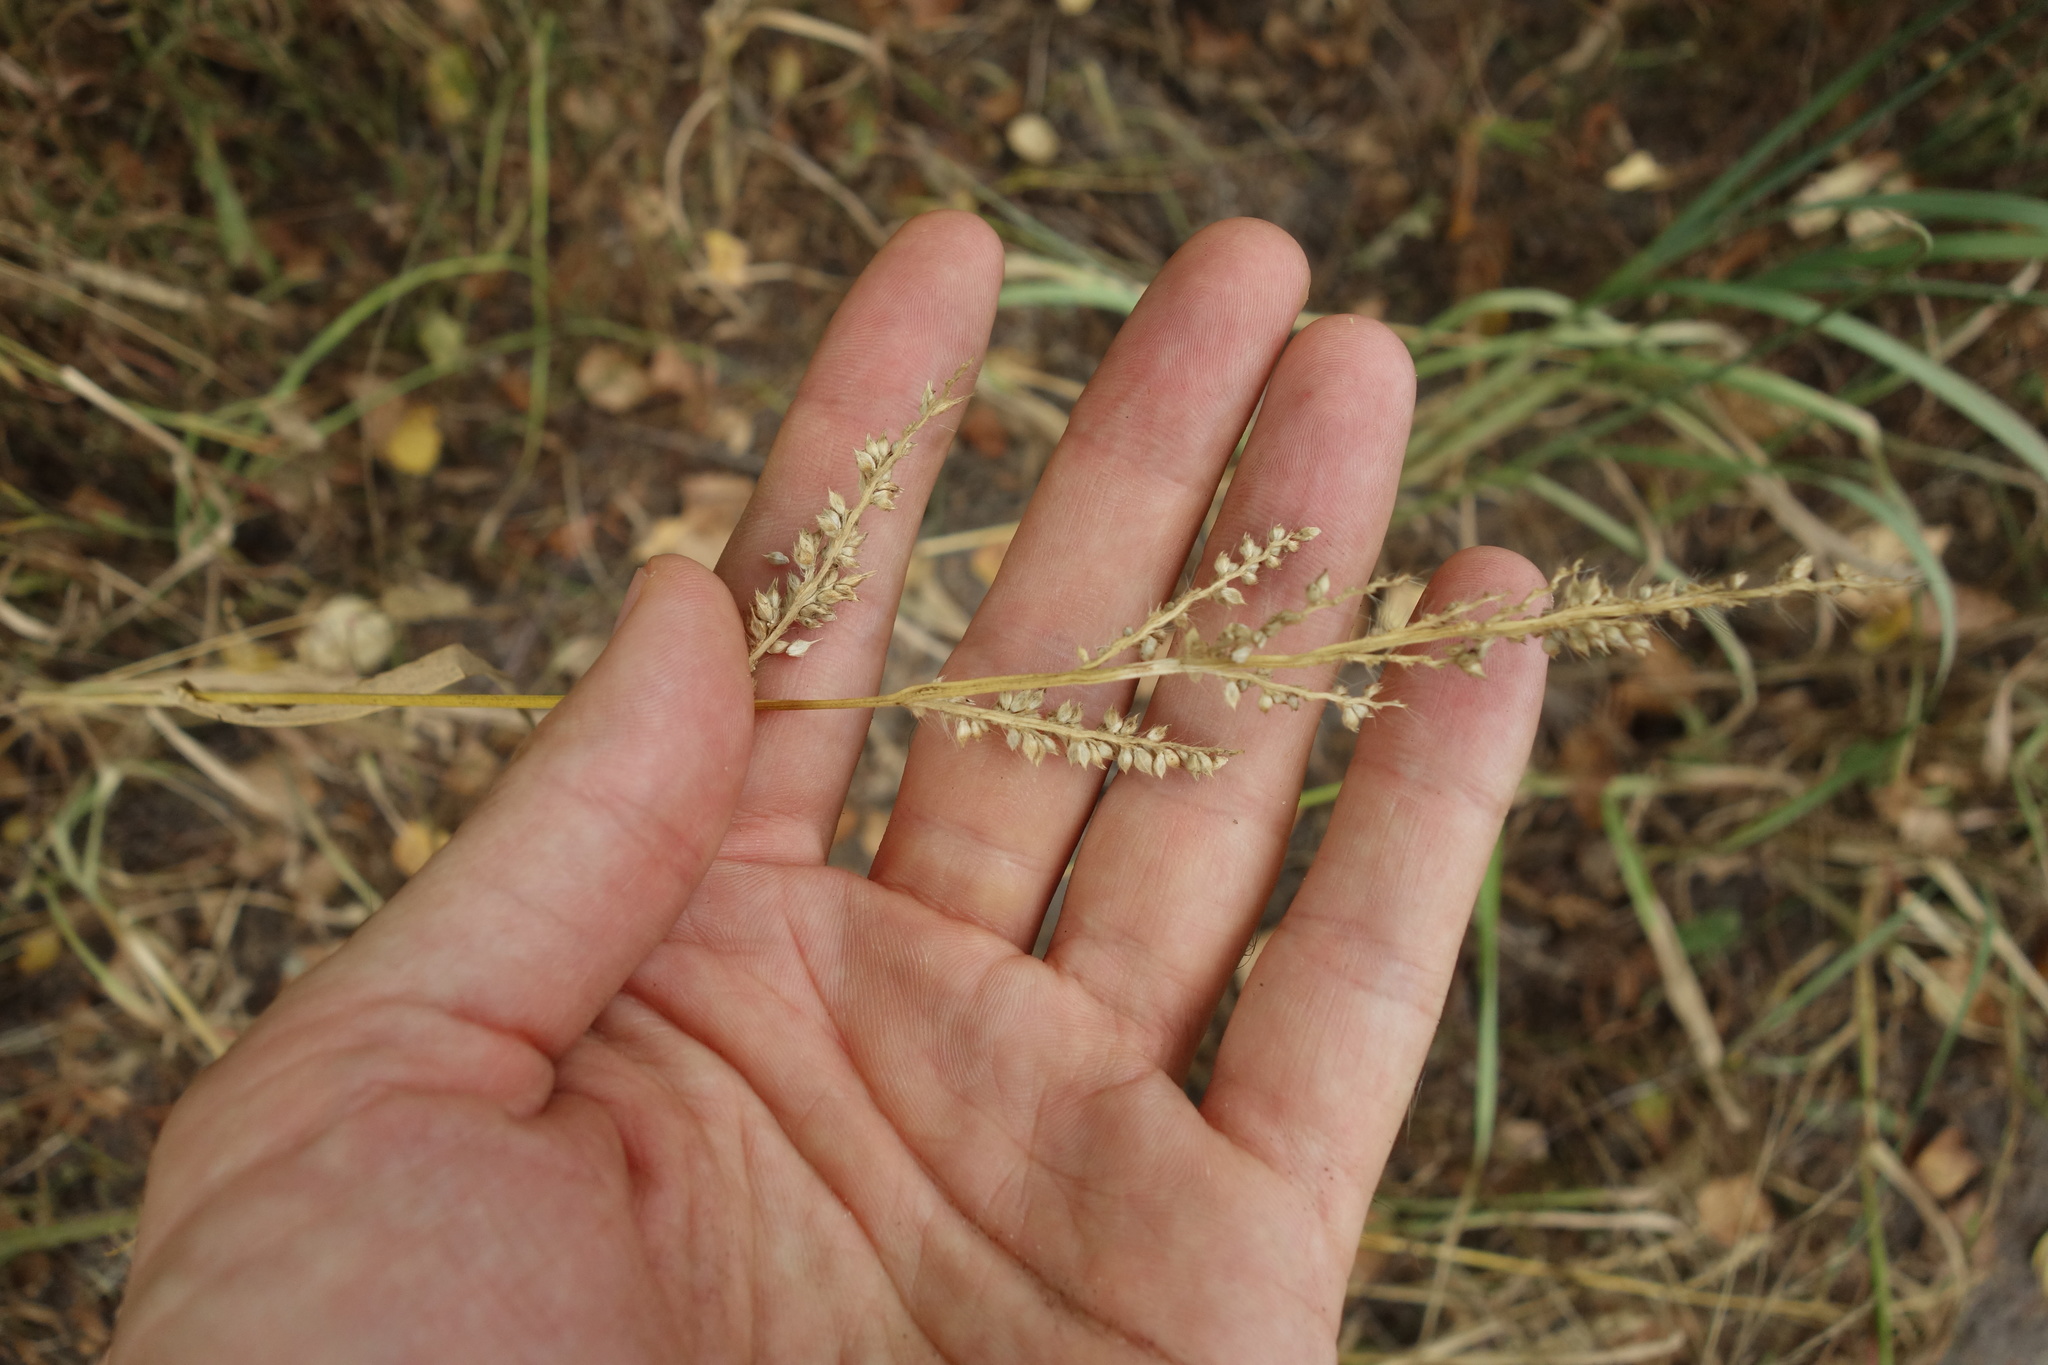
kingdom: Plantae
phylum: Tracheophyta
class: Liliopsida
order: Poales
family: Poaceae
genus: Echinochloa
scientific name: Echinochloa crus-galli
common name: Cockspur
